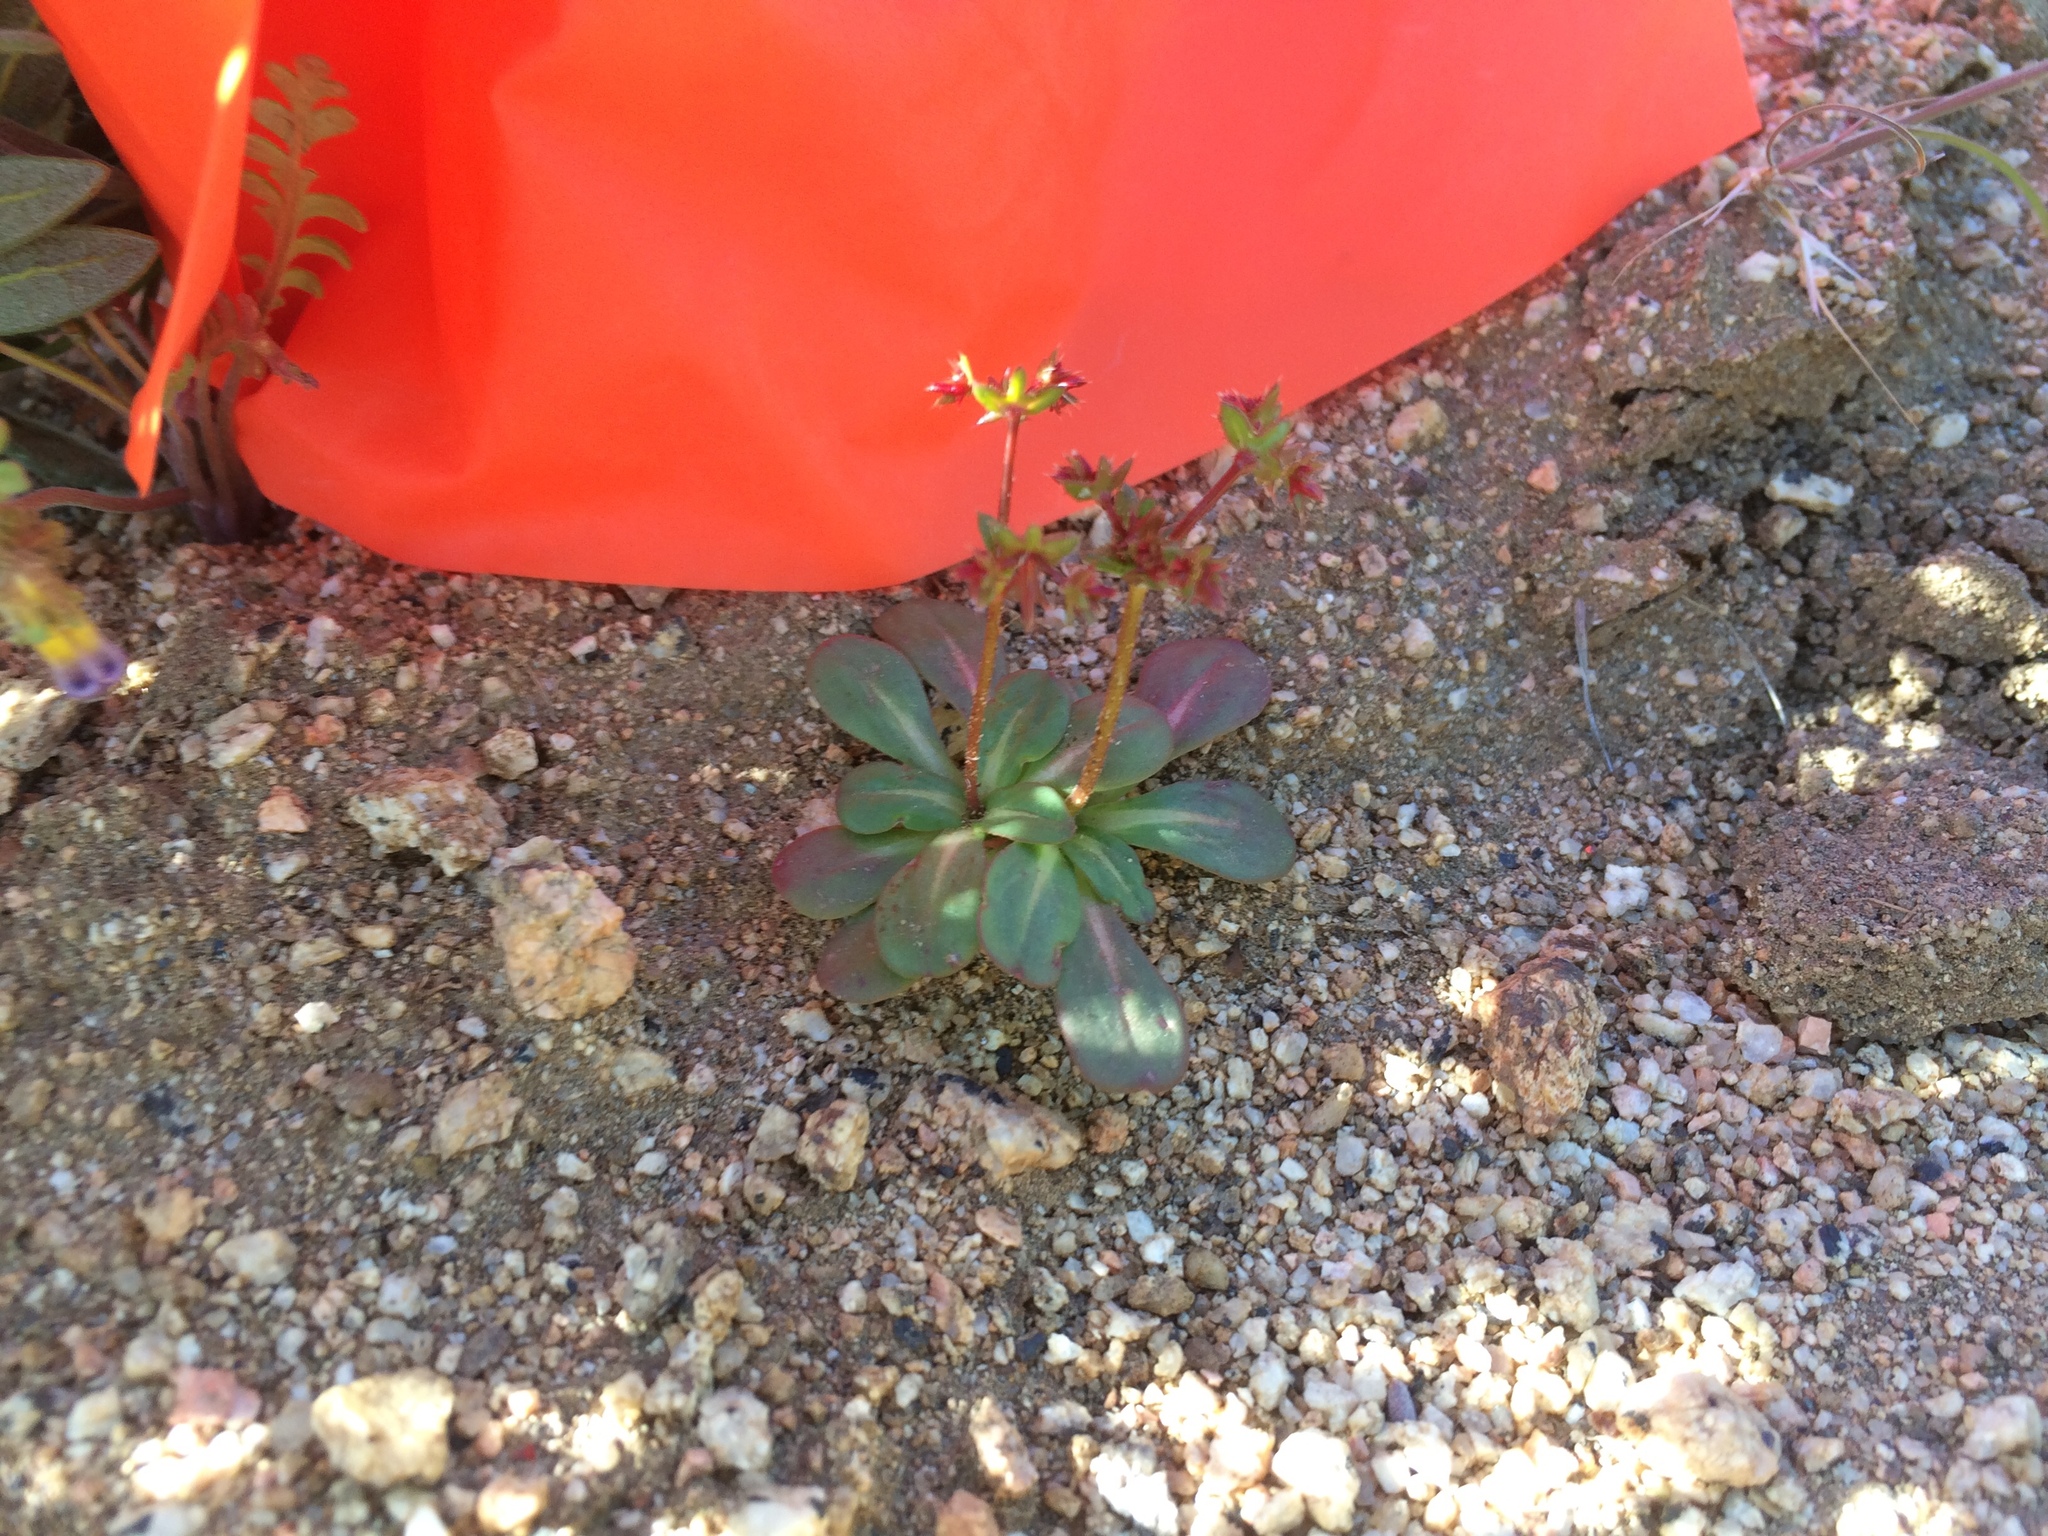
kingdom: Plantae
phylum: Tracheophyta
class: Magnoliopsida
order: Caryophyllales
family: Polygonaceae
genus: Centrostegia
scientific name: Centrostegia thurberi
